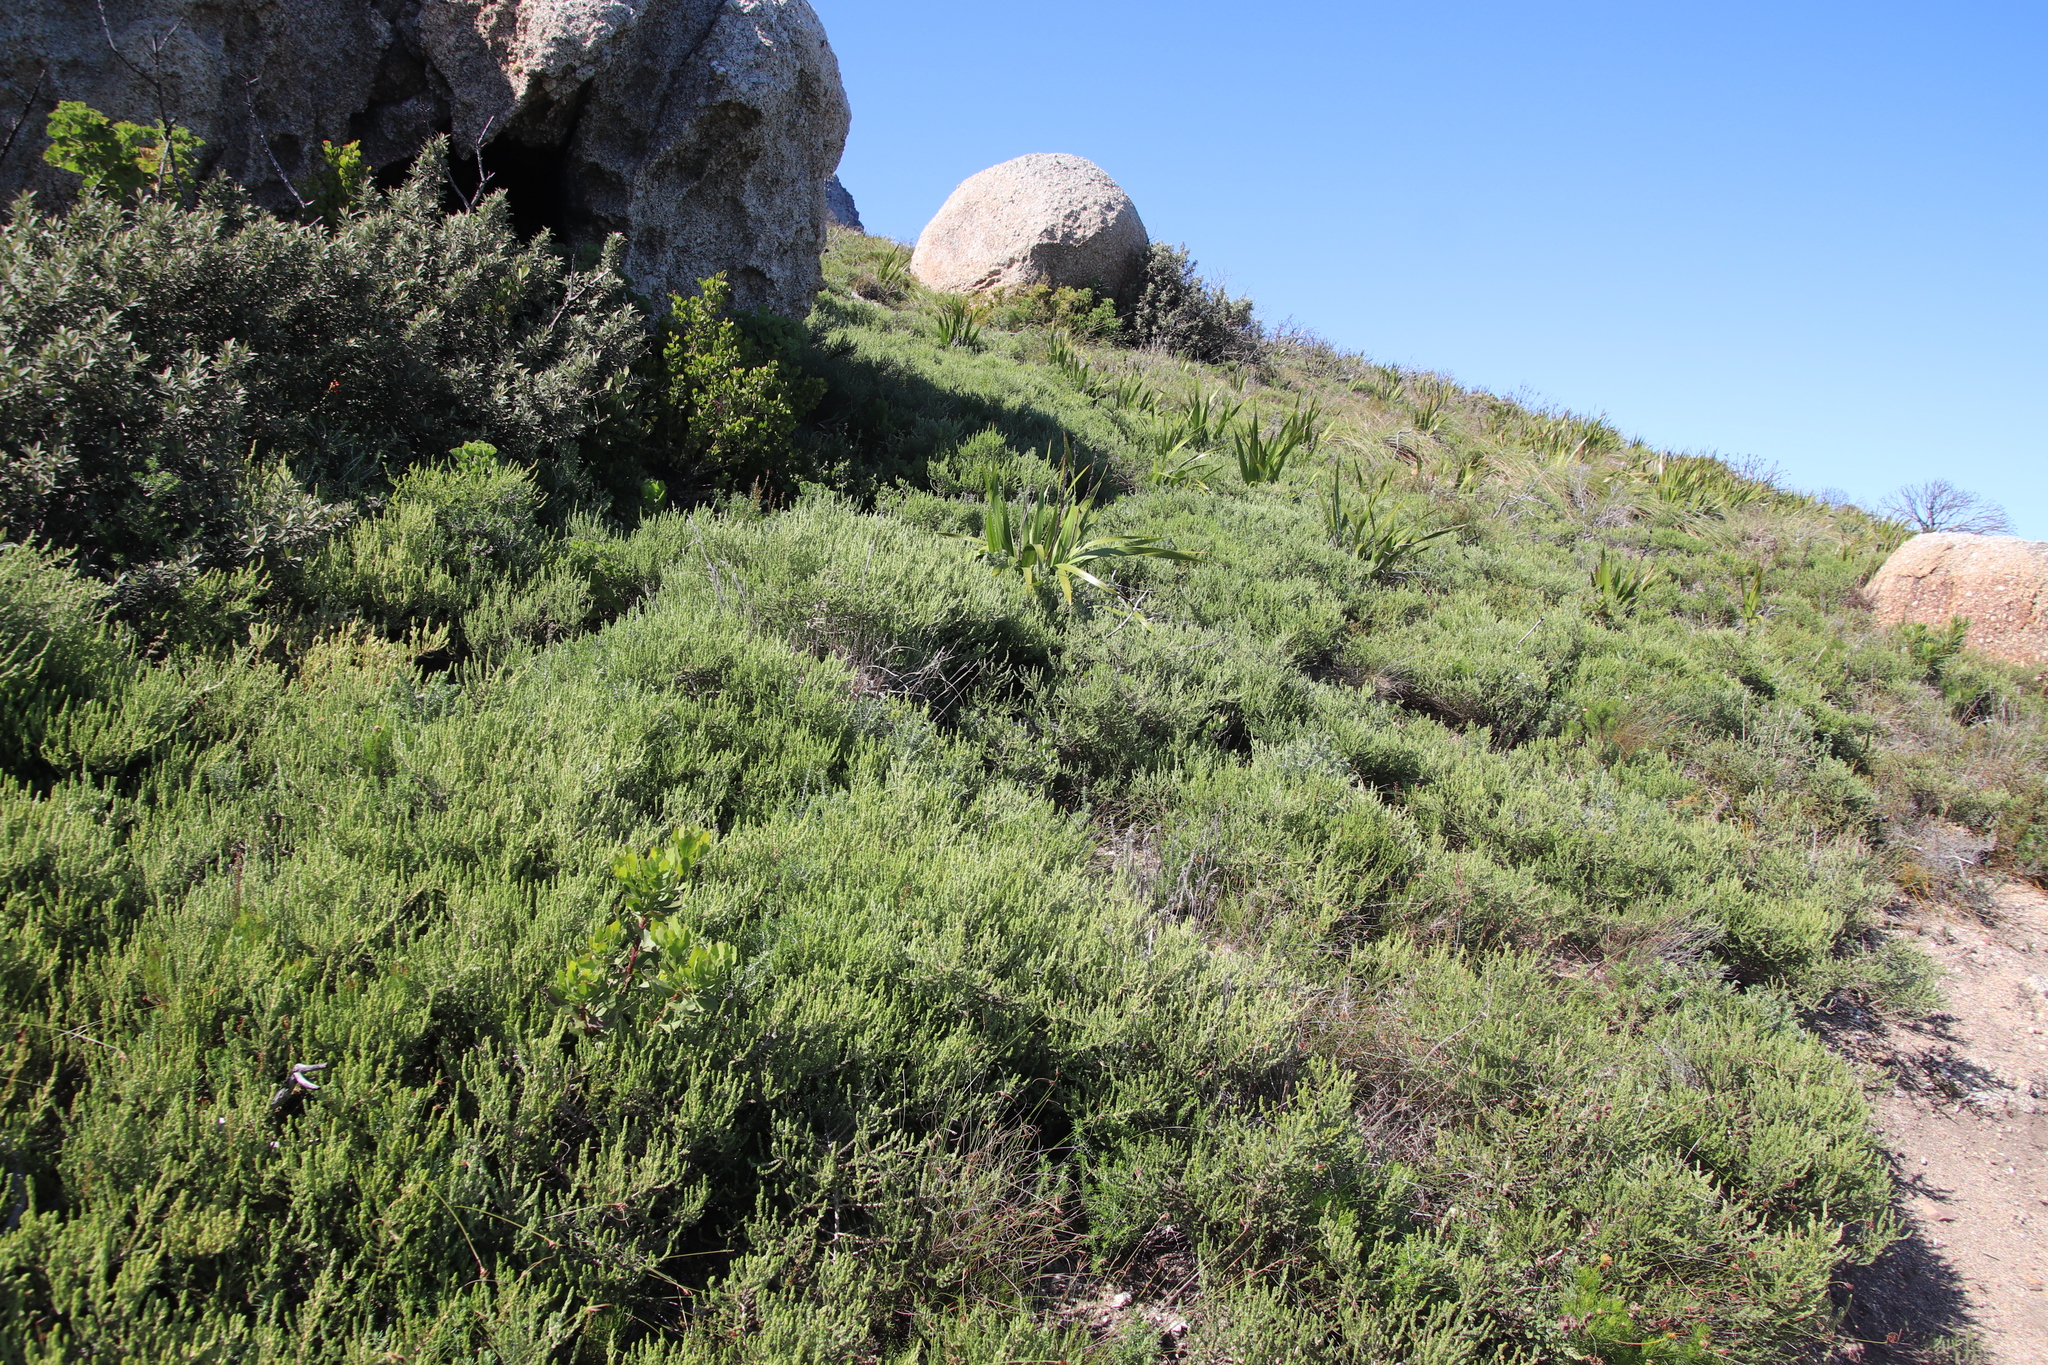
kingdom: Plantae
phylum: Tracheophyta
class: Magnoliopsida
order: Fabales
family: Fabaceae
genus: Aspalathus
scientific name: Aspalathus ericifolia
